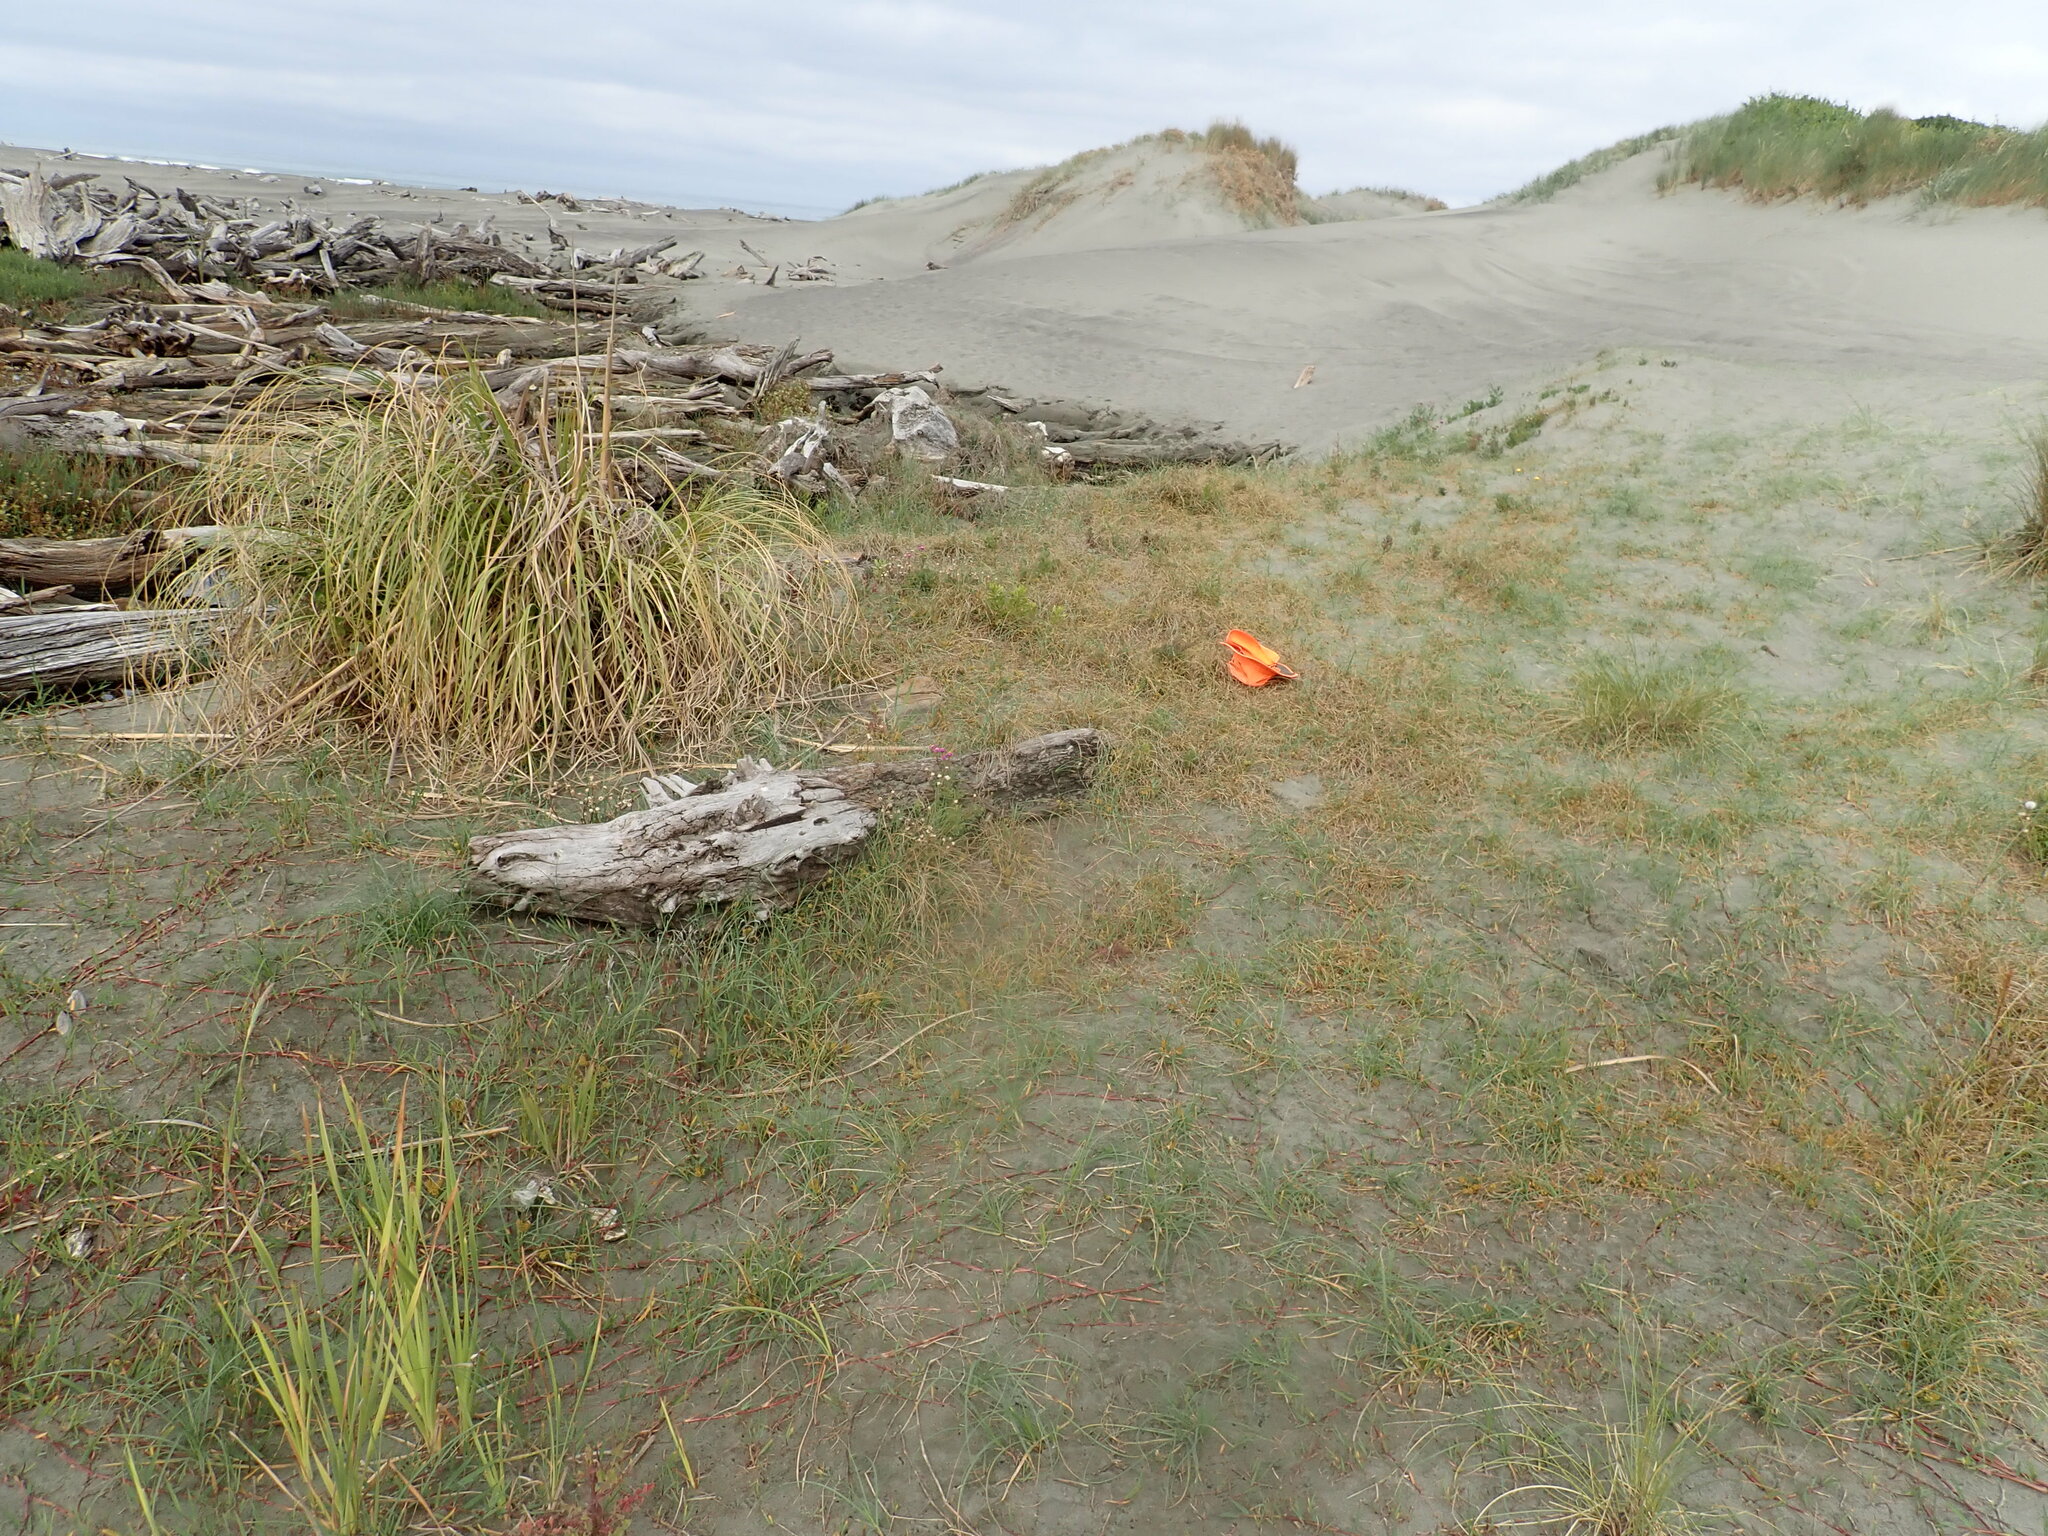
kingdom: Plantae
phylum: Tracheophyta
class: Liliopsida
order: Poales
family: Cyperaceae
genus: Carex
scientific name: Carex pumila
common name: Dwarf sedge
